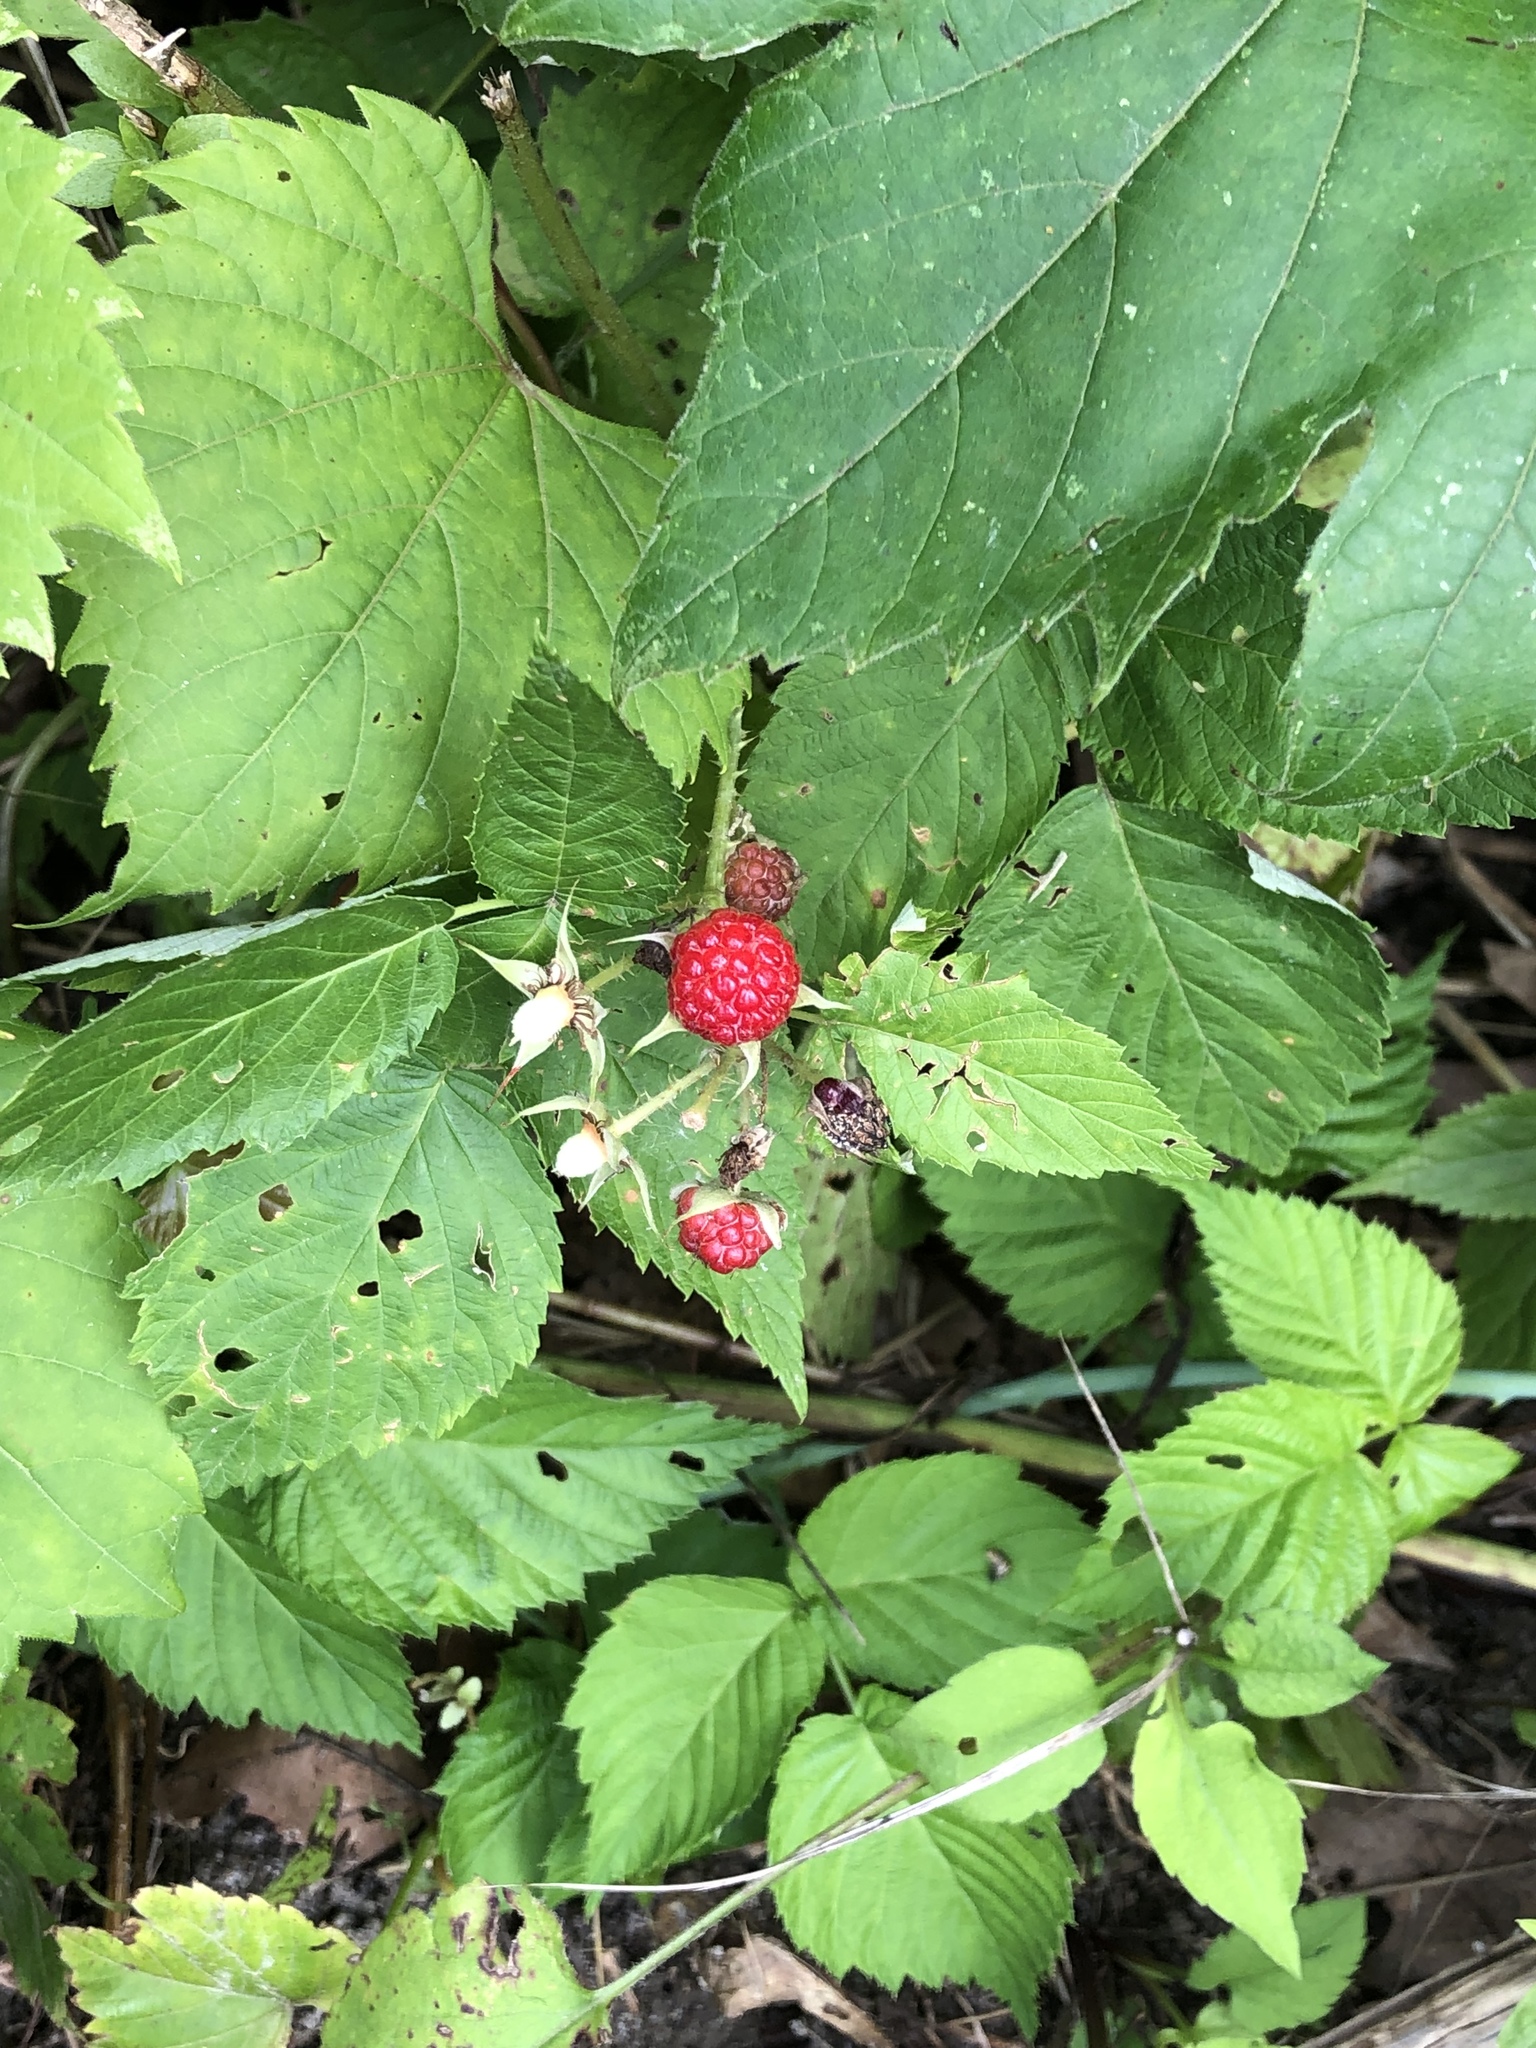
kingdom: Plantae
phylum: Tracheophyta
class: Magnoliopsida
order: Rosales
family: Rosaceae
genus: Rubus
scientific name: Rubus occidentalis
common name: Black raspberry
